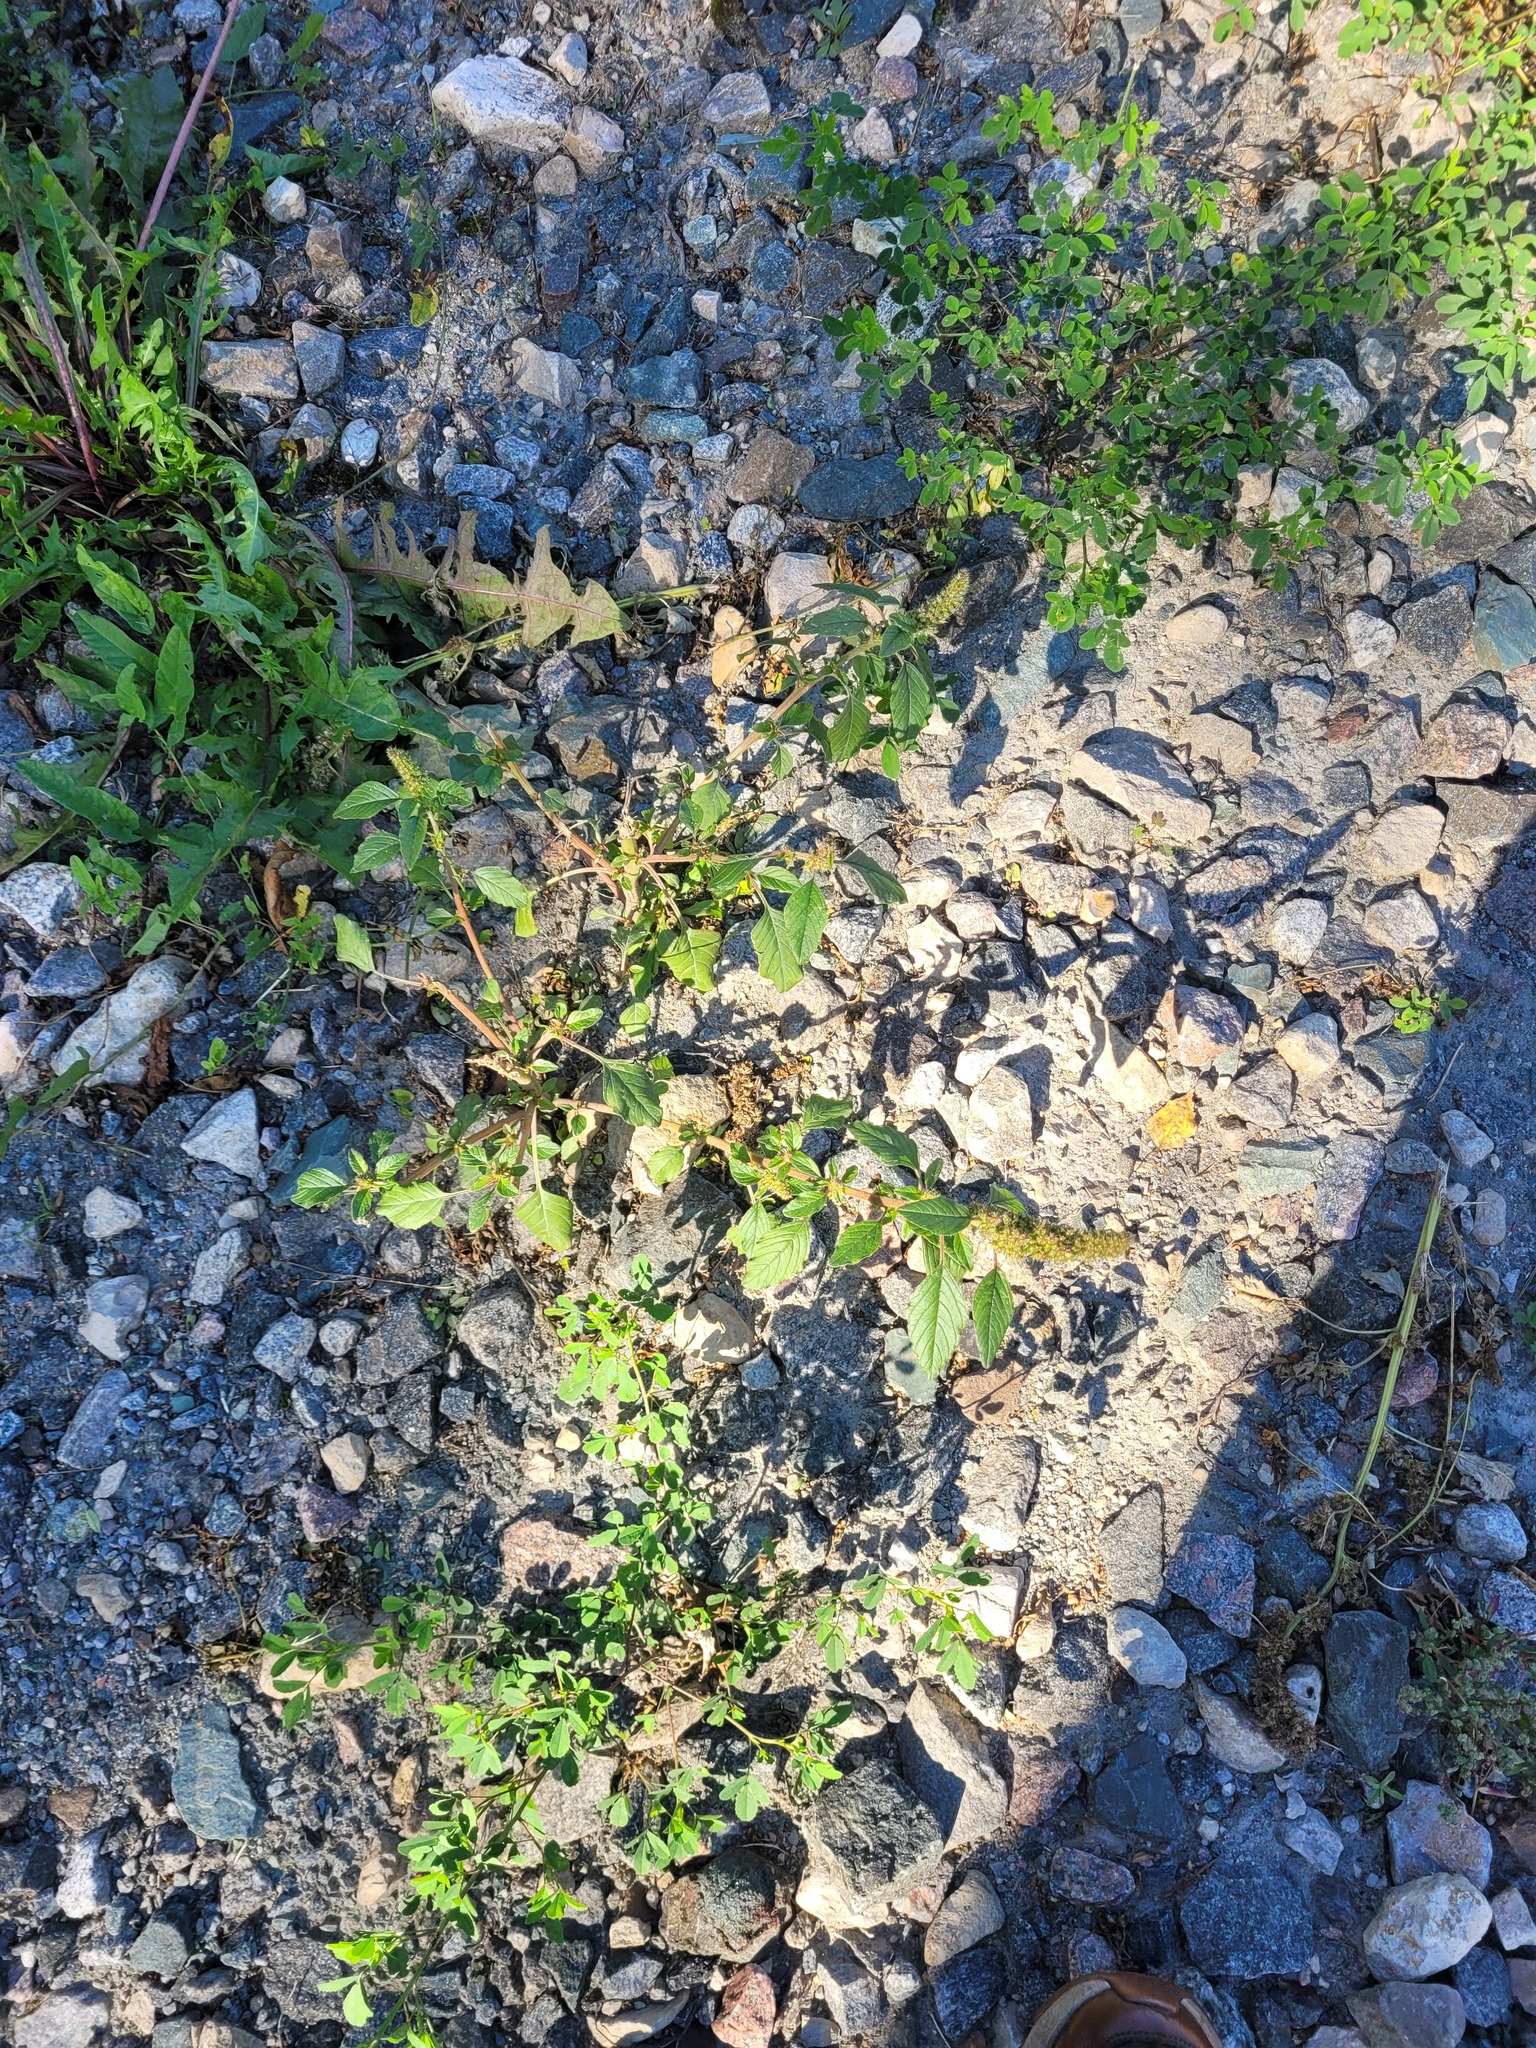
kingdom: Plantae
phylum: Tracheophyta
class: Magnoliopsida
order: Caryophyllales
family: Amaranthaceae
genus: Amaranthus
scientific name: Amaranthus retroflexus
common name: Redroot amaranth
